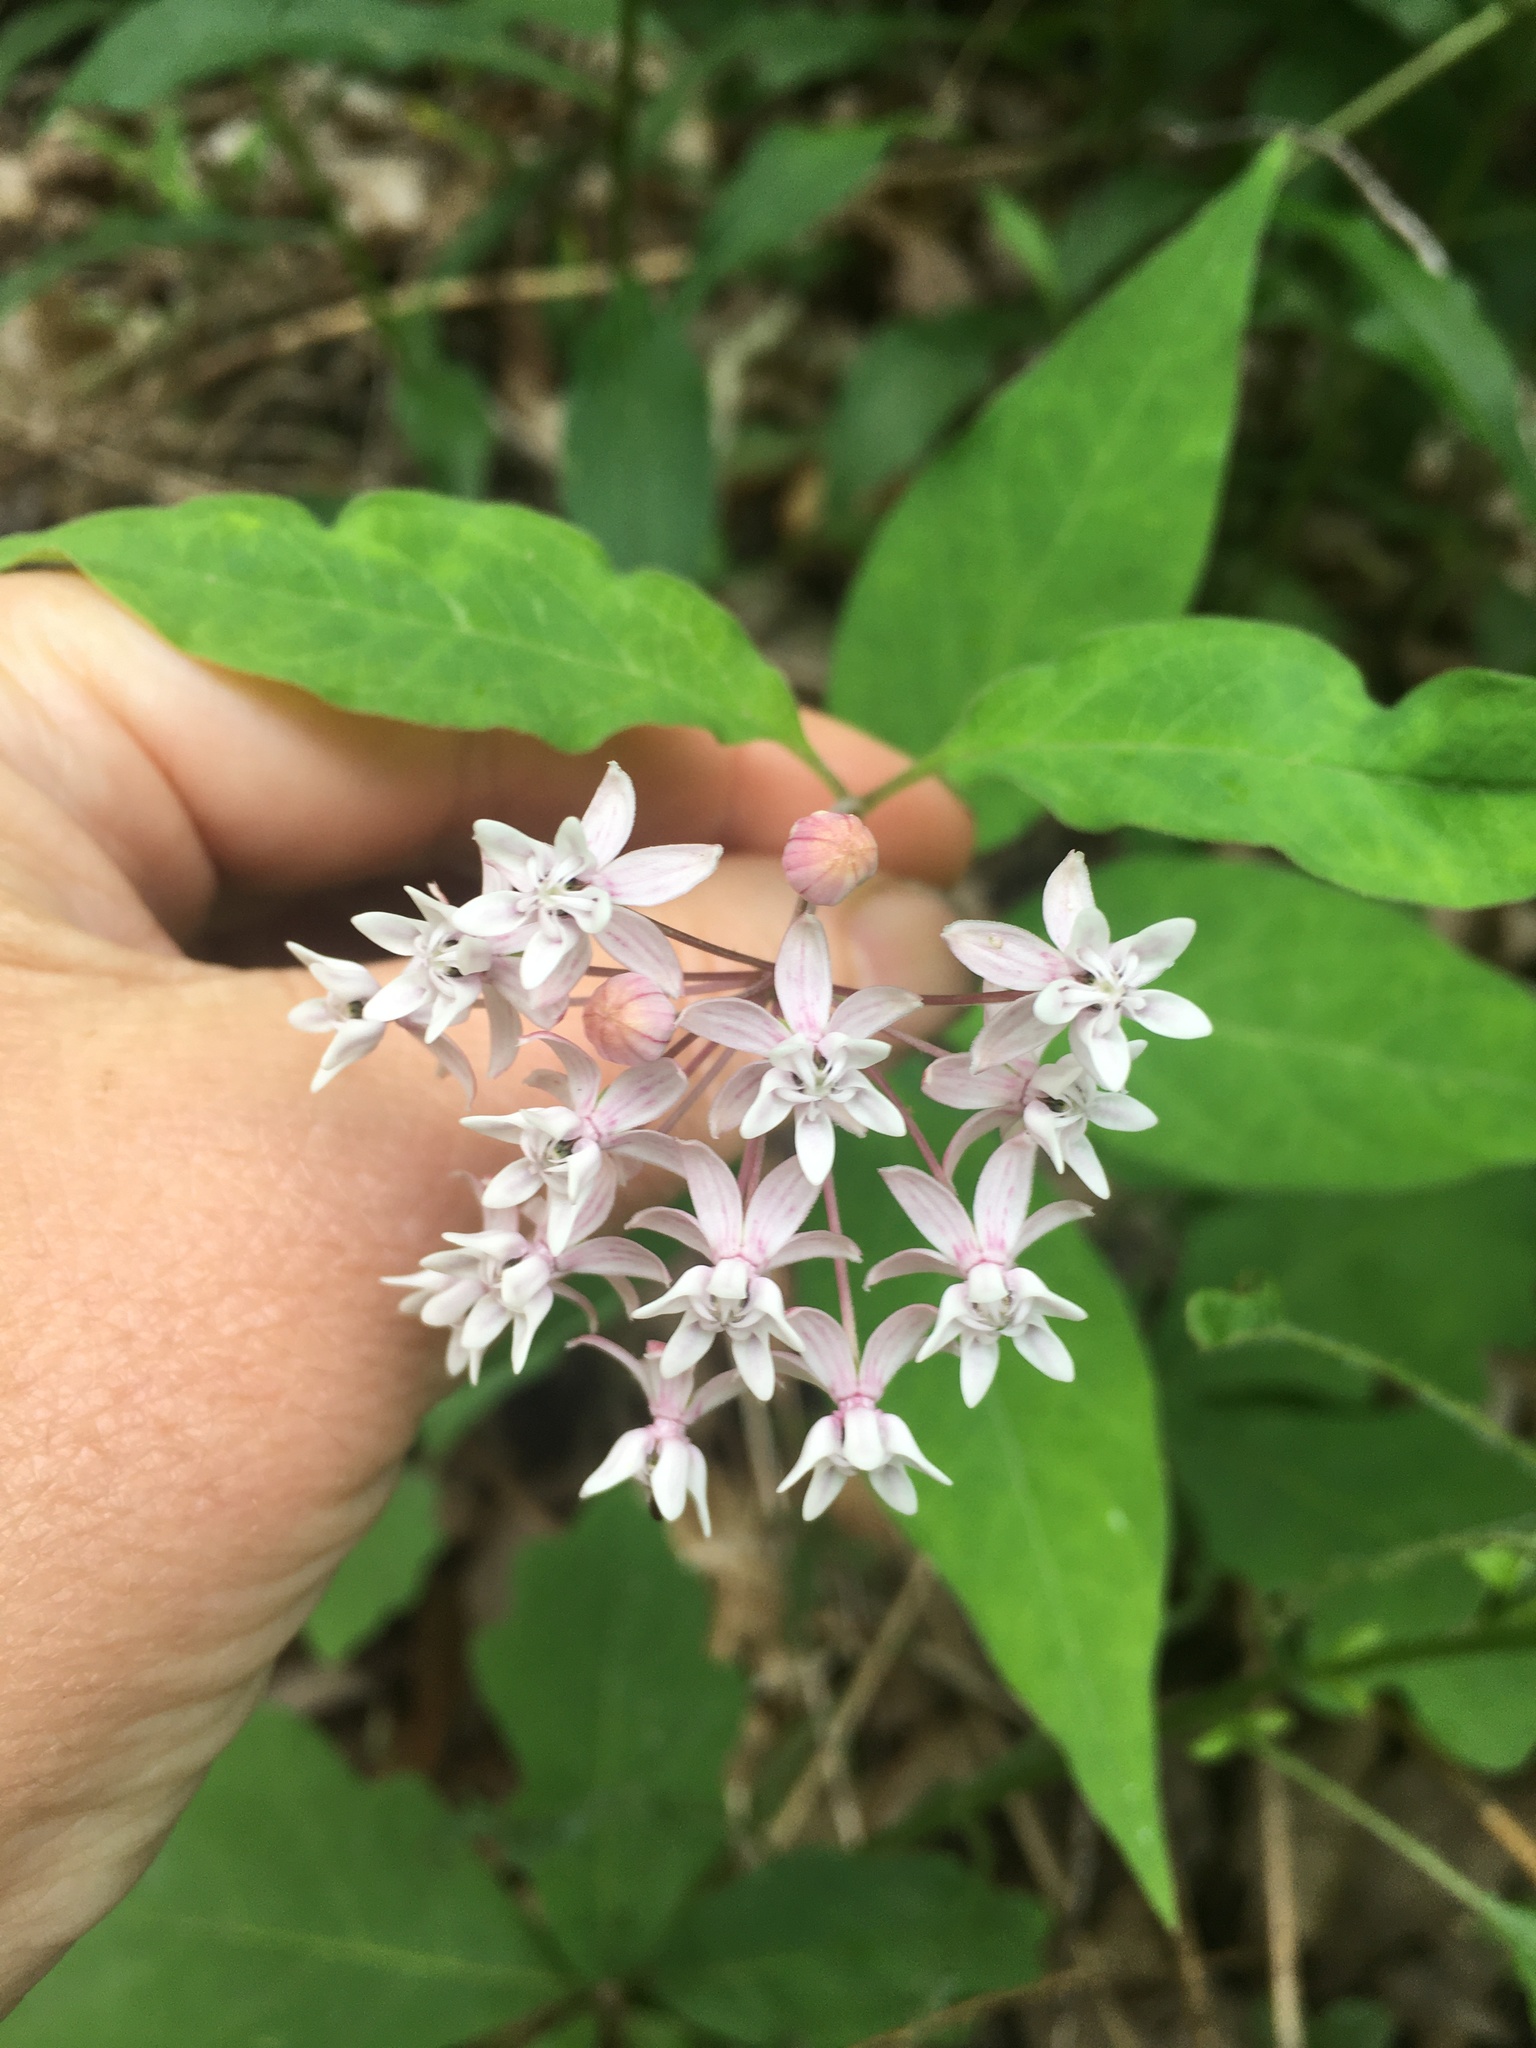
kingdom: Plantae
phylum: Tracheophyta
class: Magnoliopsida
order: Gentianales
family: Apocynaceae
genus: Asclepias
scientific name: Asclepias quadrifolia
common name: Whorled milkweed
